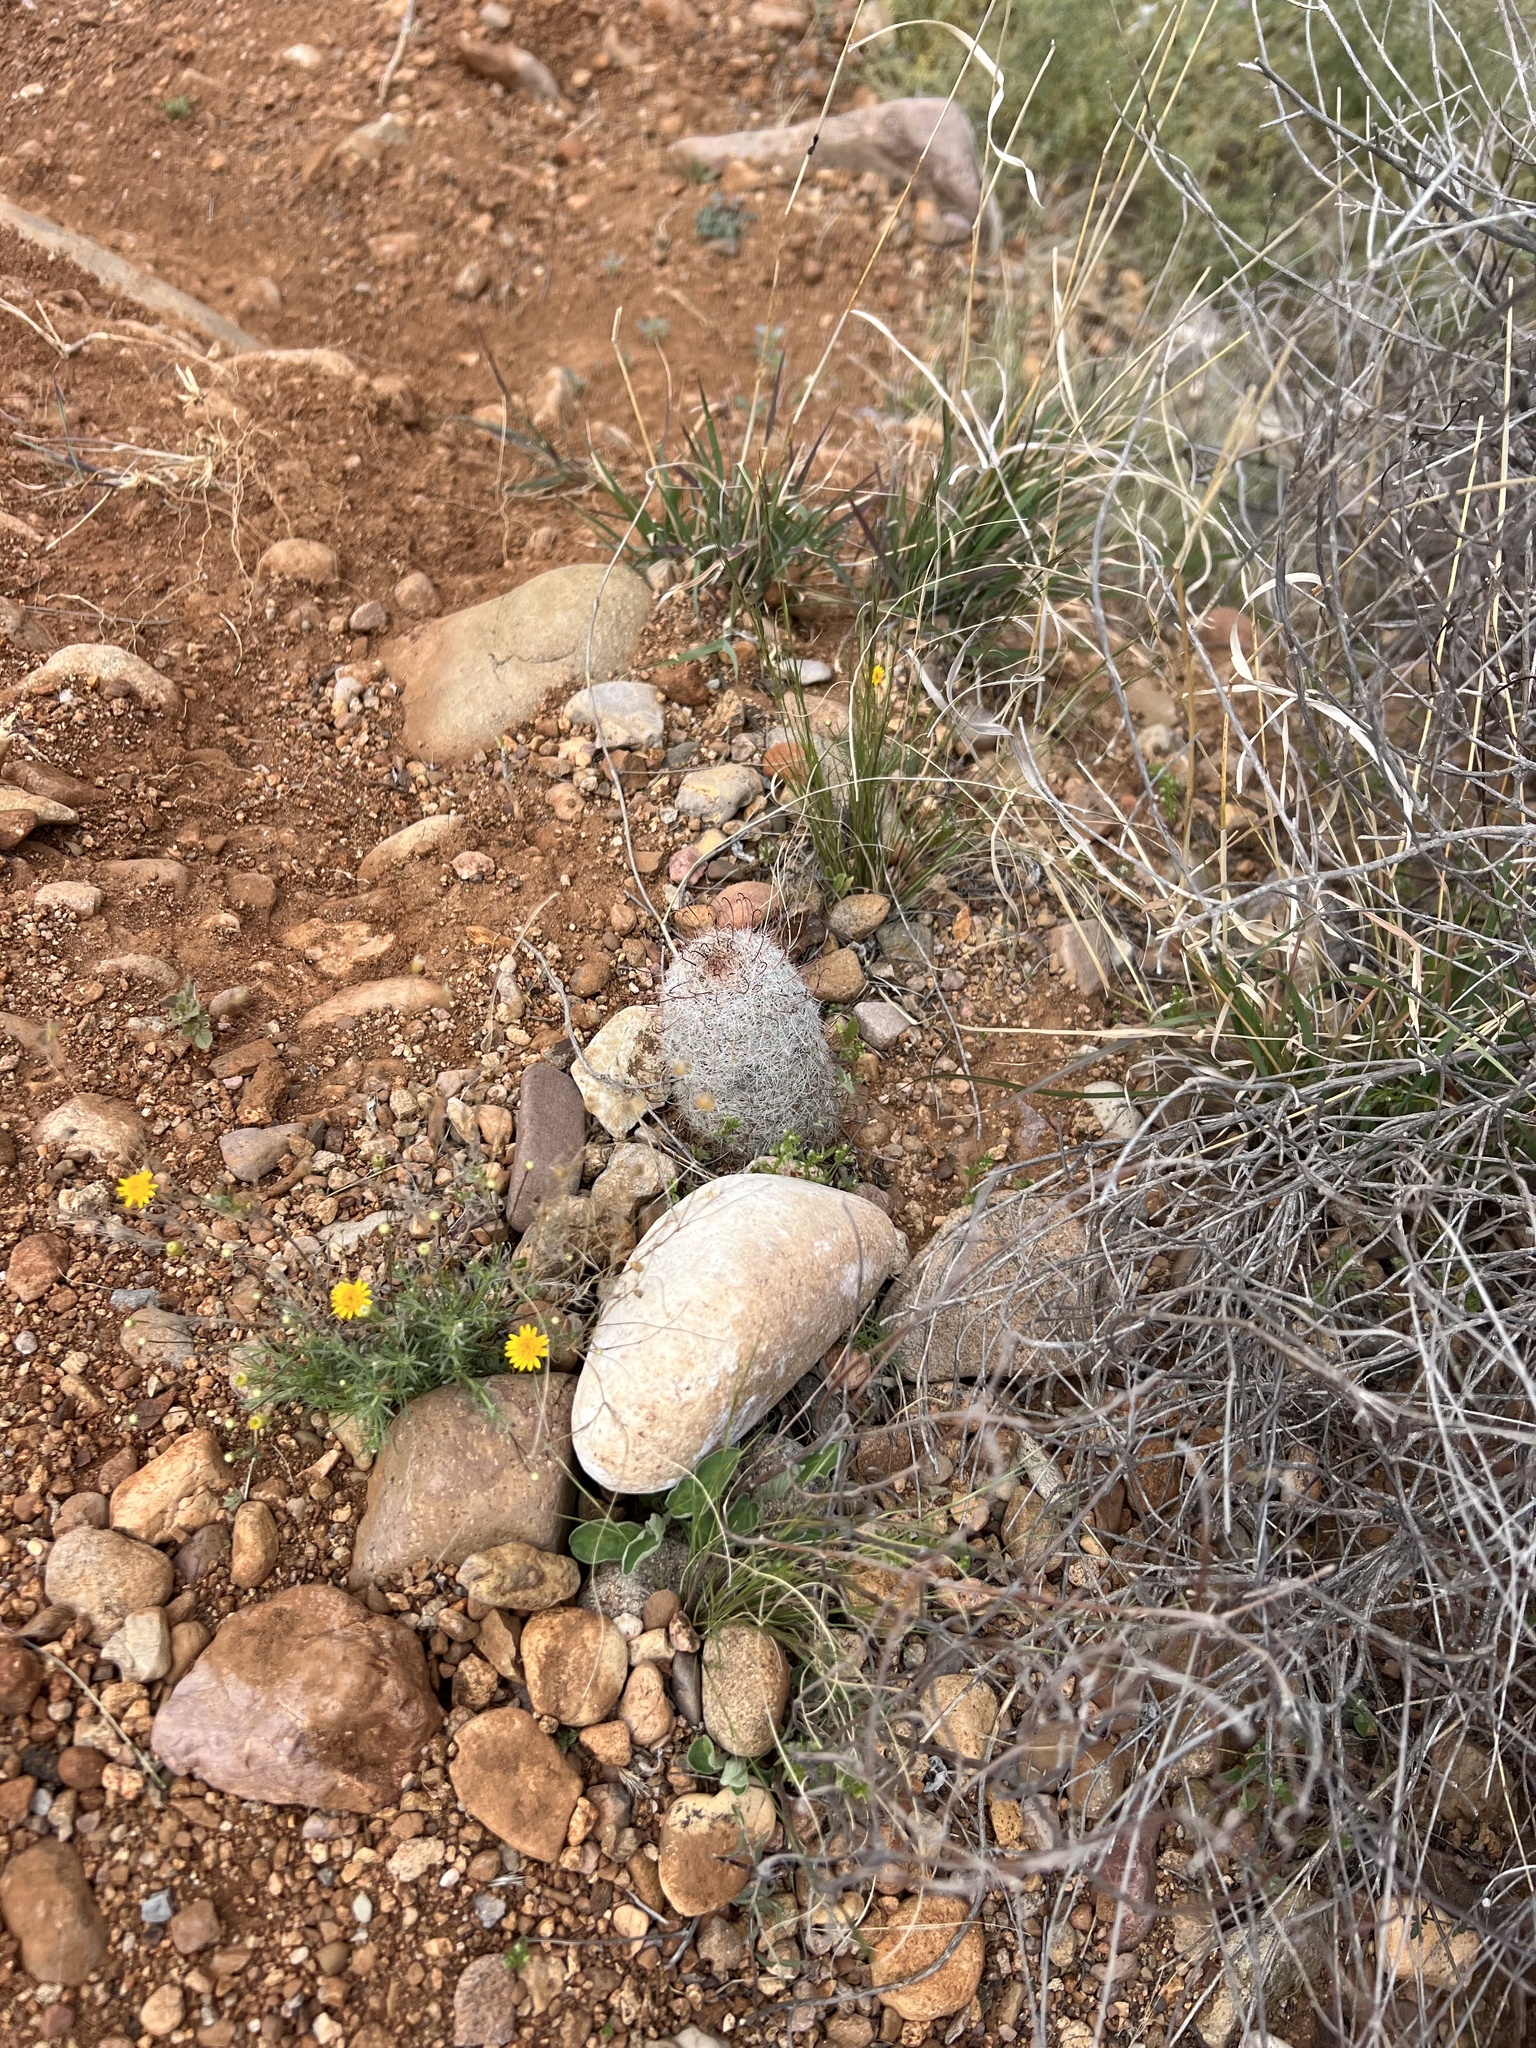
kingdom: Plantae
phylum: Tracheophyta
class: Magnoliopsida
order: Caryophyllales
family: Cactaceae
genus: Cochemiea
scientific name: Cochemiea grahamii
